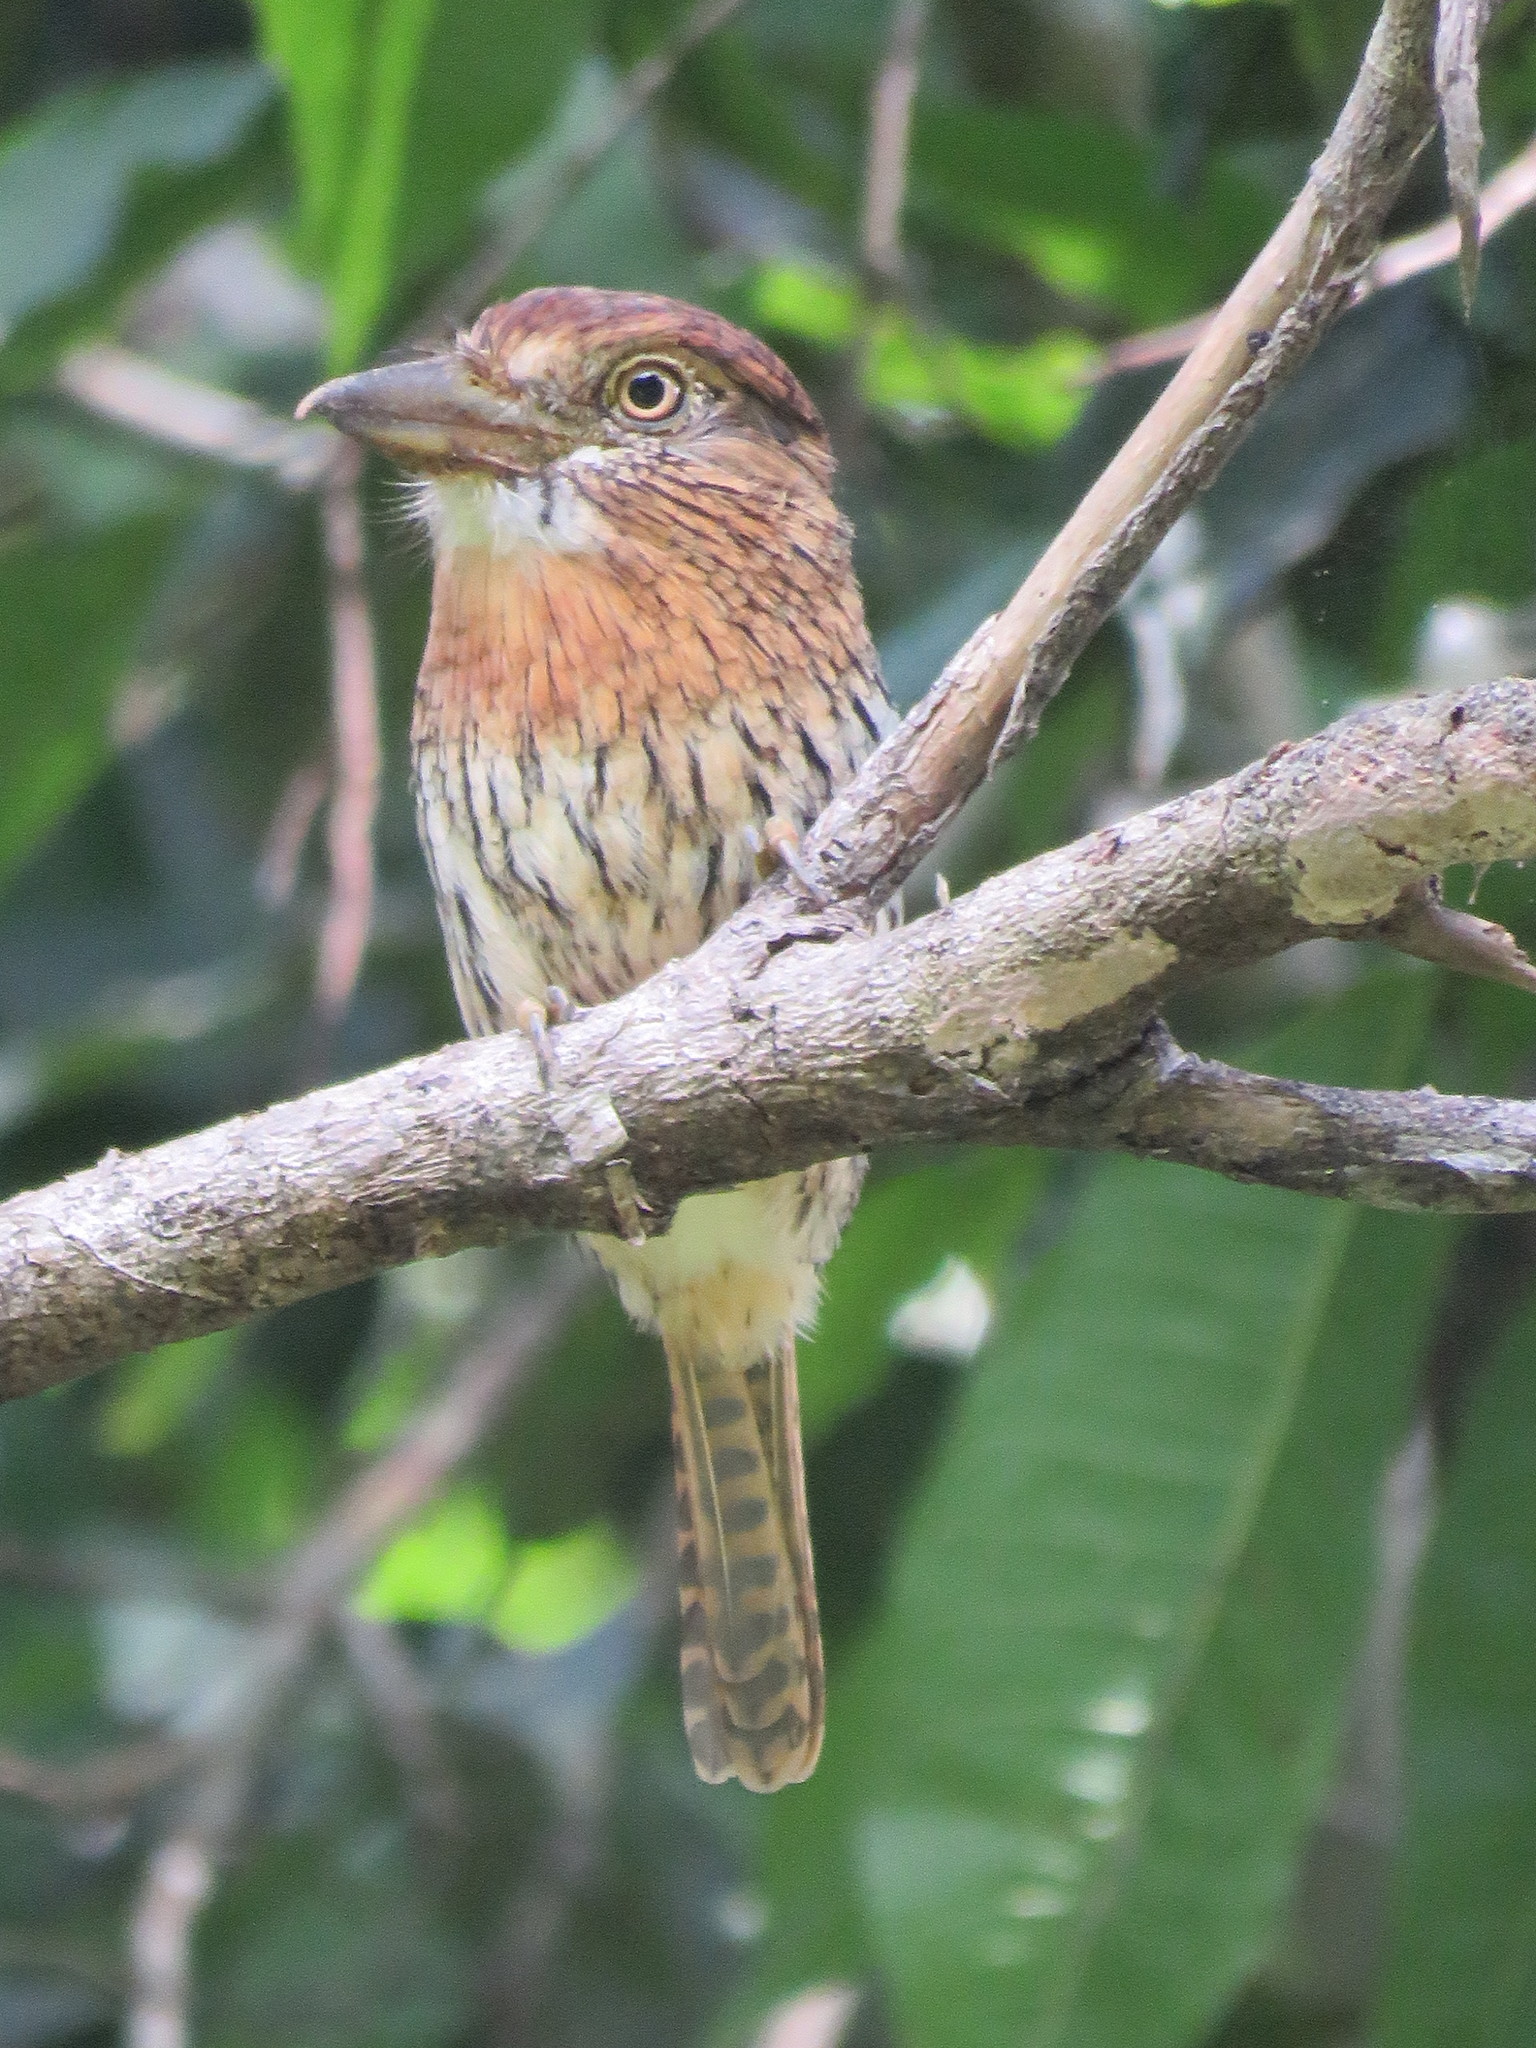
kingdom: Animalia
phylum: Chordata
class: Aves
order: Piciformes
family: Bucconidae
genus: Nystalus
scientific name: Nystalus obamai
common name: Western striolated puffbird
